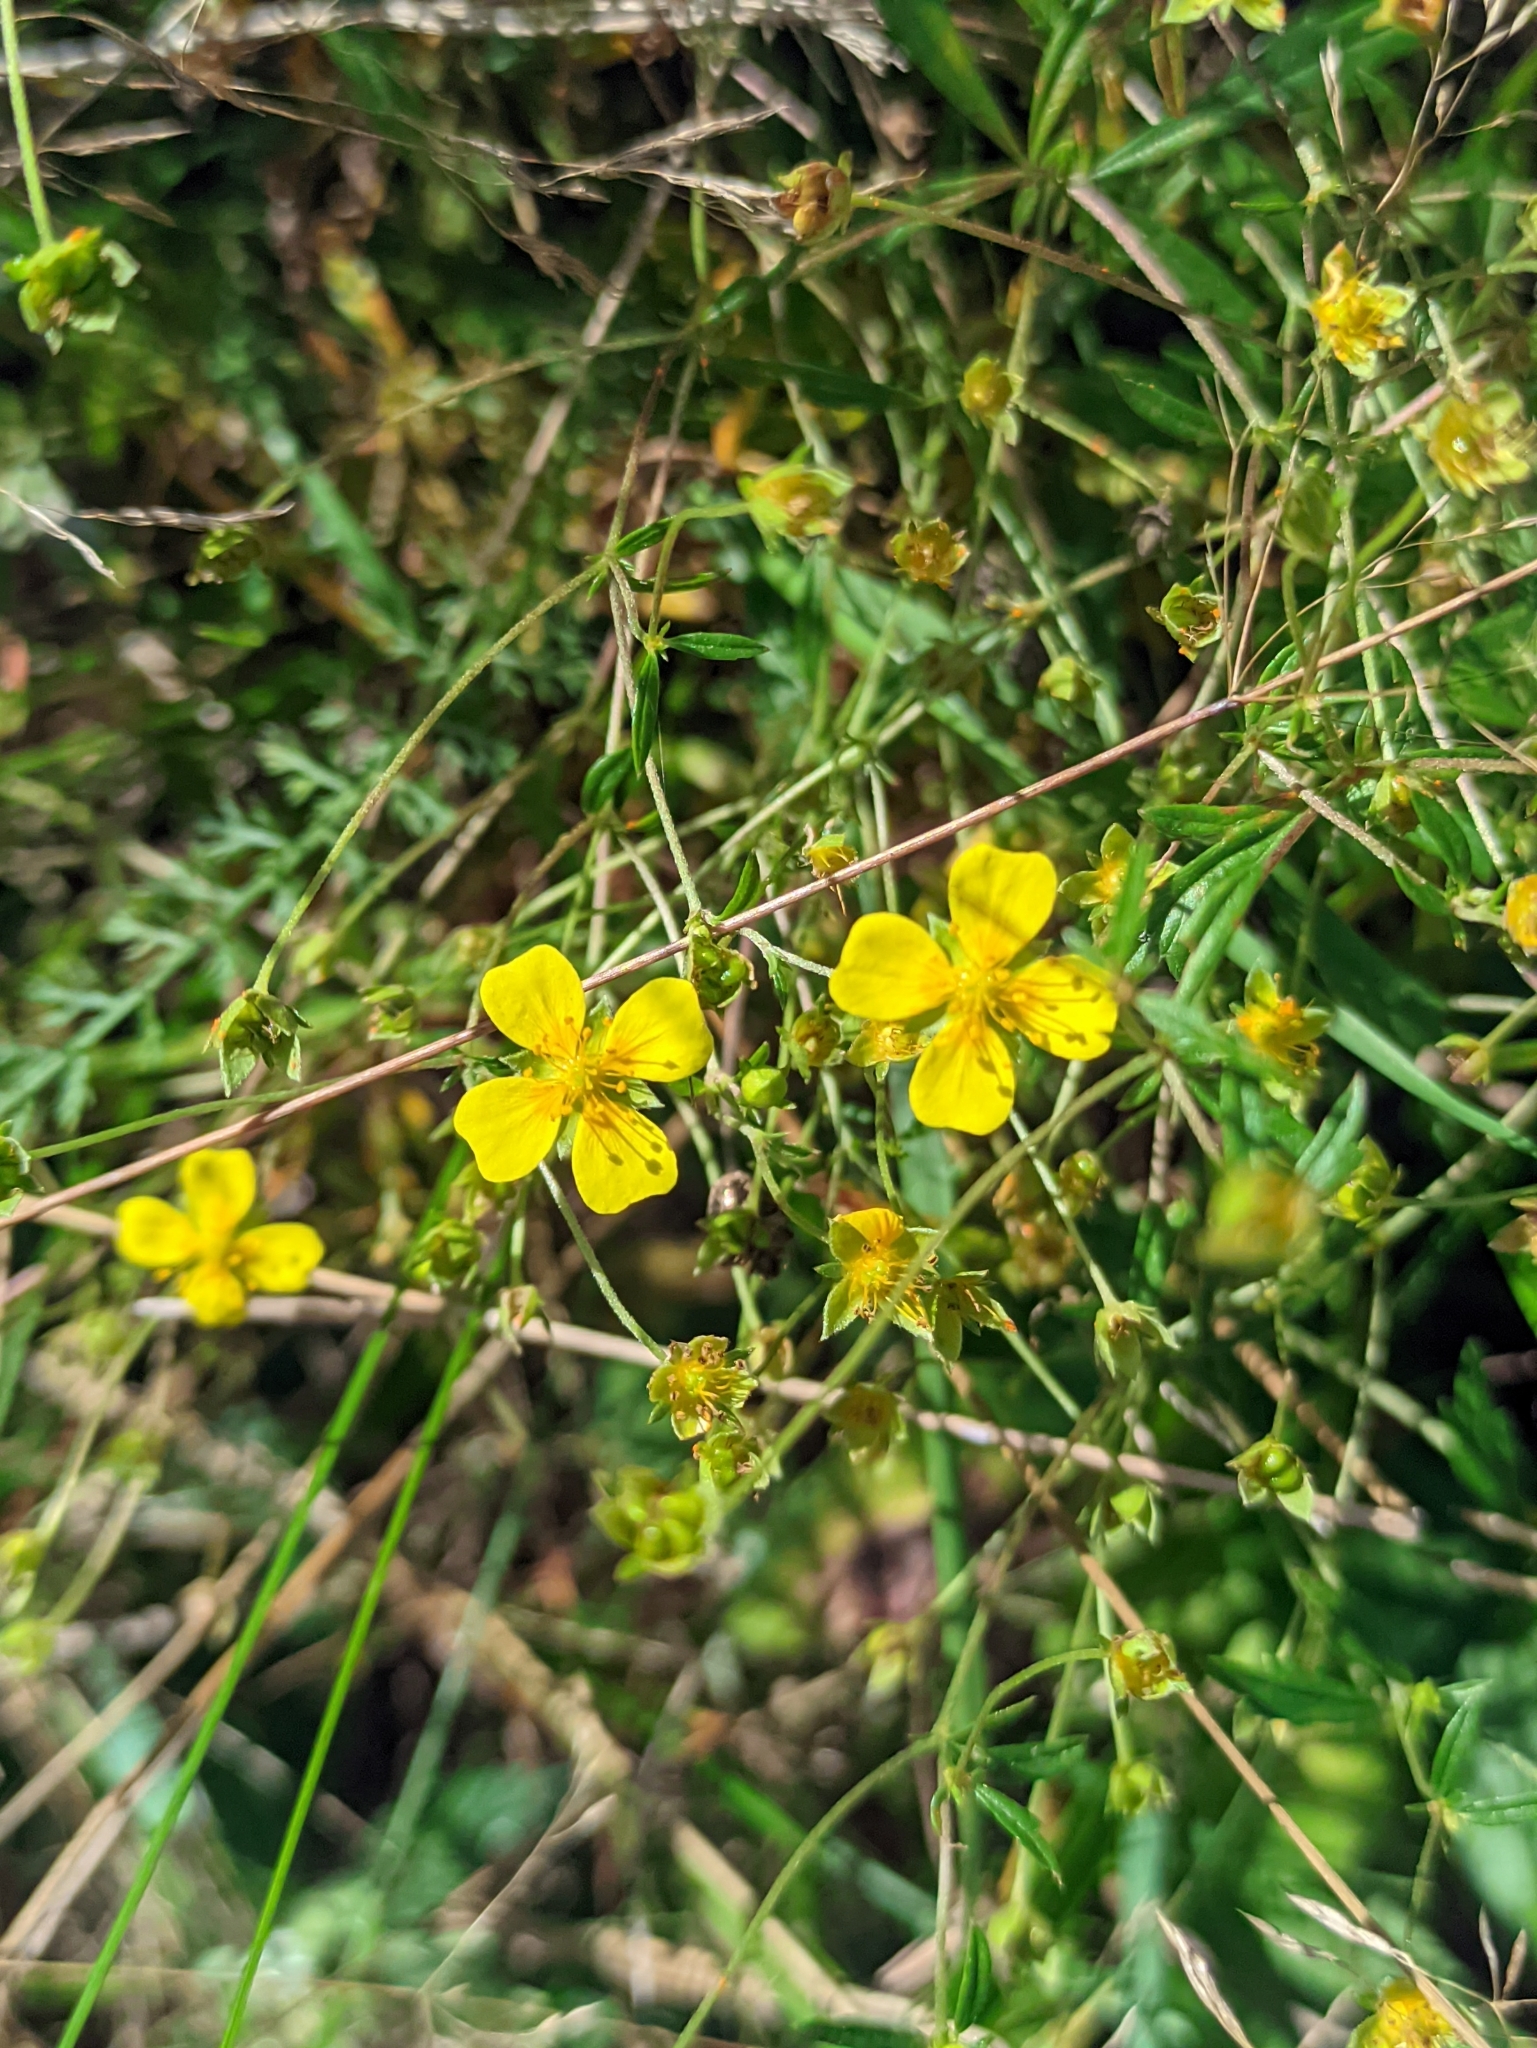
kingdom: Plantae
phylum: Tracheophyta
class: Magnoliopsida
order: Rosales
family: Rosaceae
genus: Potentilla
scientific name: Potentilla erecta
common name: Tormentil
